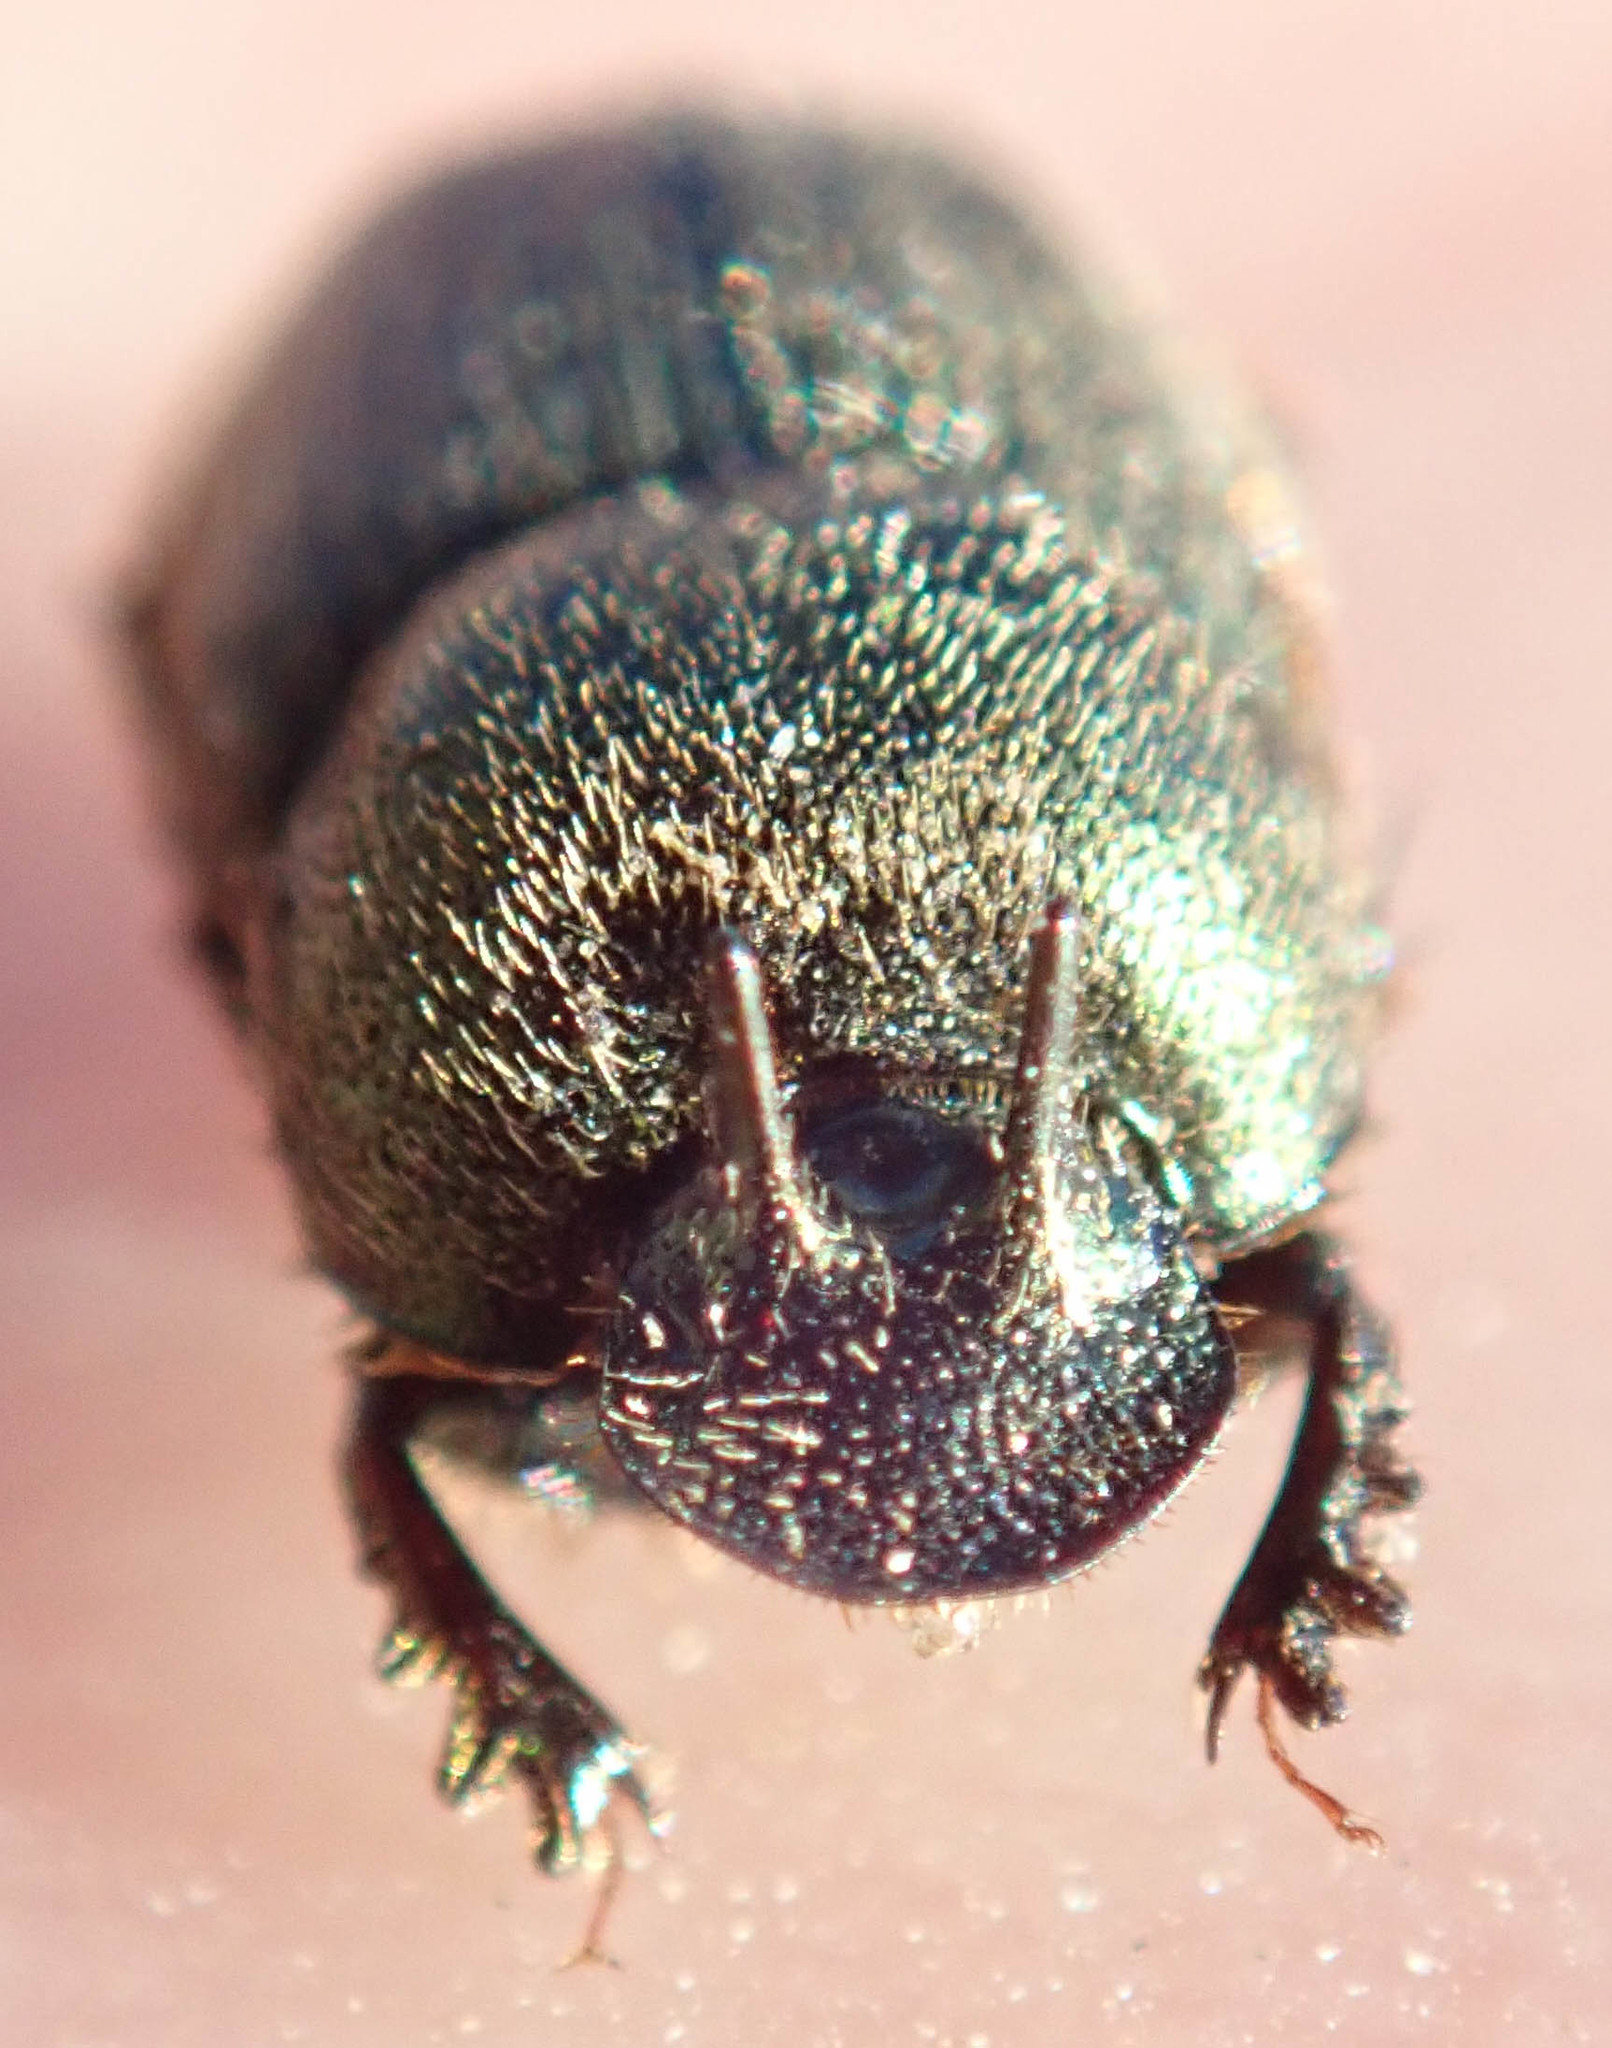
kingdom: Animalia
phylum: Arthropoda
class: Insecta
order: Coleoptera
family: Scarabaeidae
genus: Onthophagus
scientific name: Onthophagus aeruginosus
